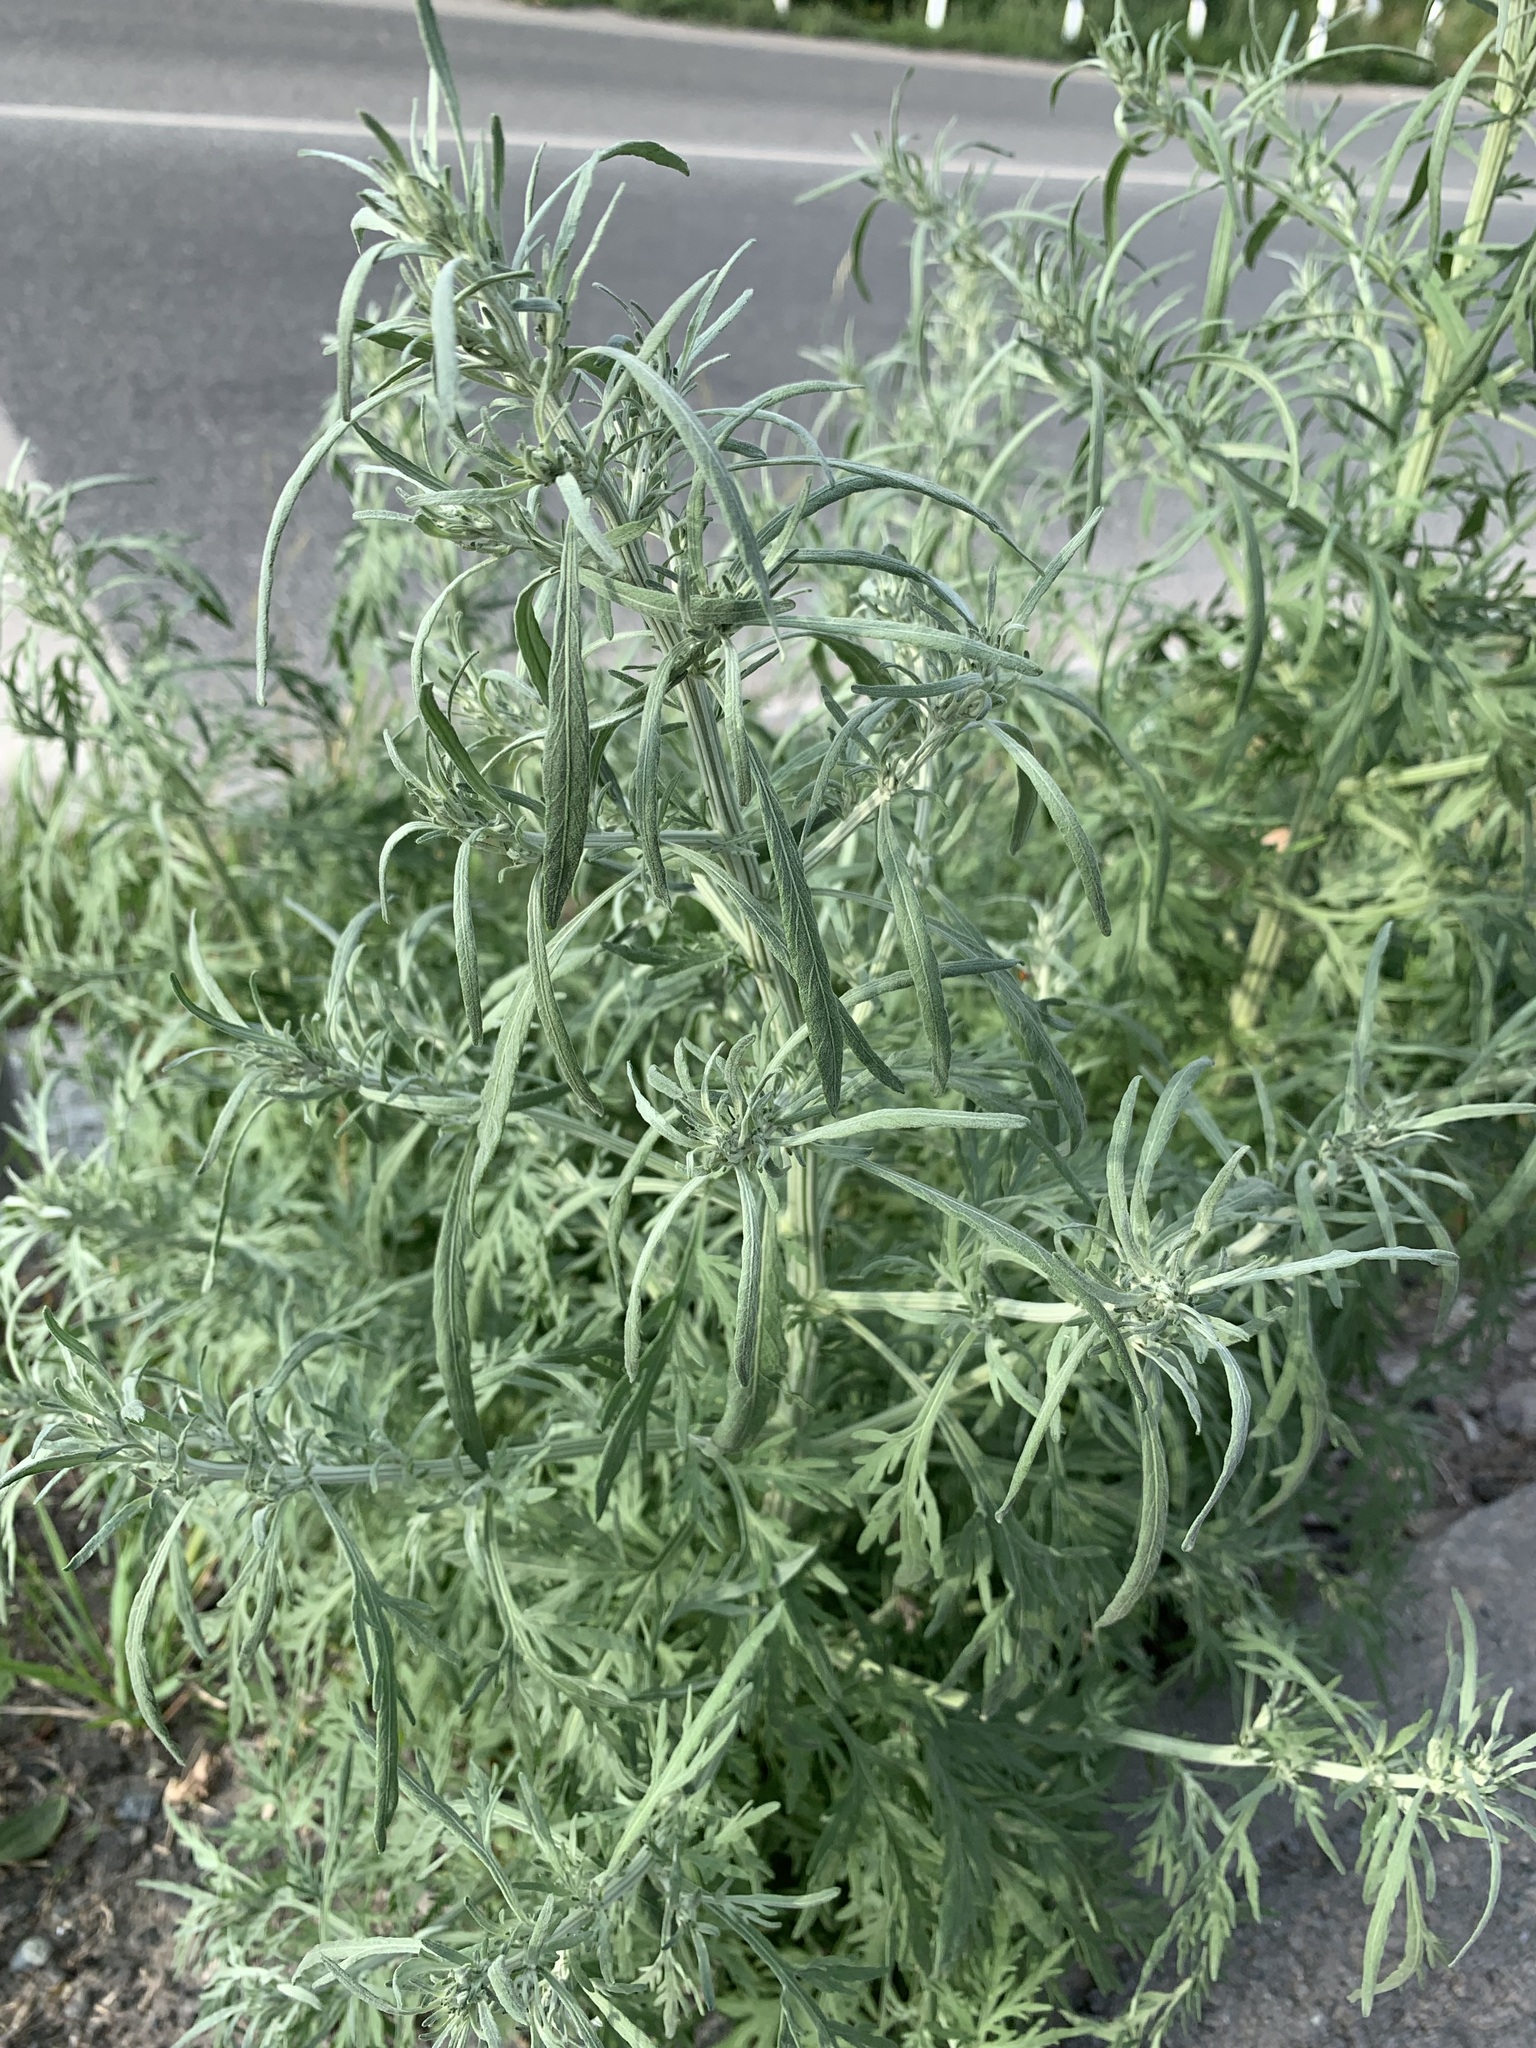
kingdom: Plantae
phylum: Tracheophyta
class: Magnoliopsida
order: Asterales
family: Asteraceae
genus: Artemisia
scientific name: Artemisia sieversiana
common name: Sieversian wormwood
